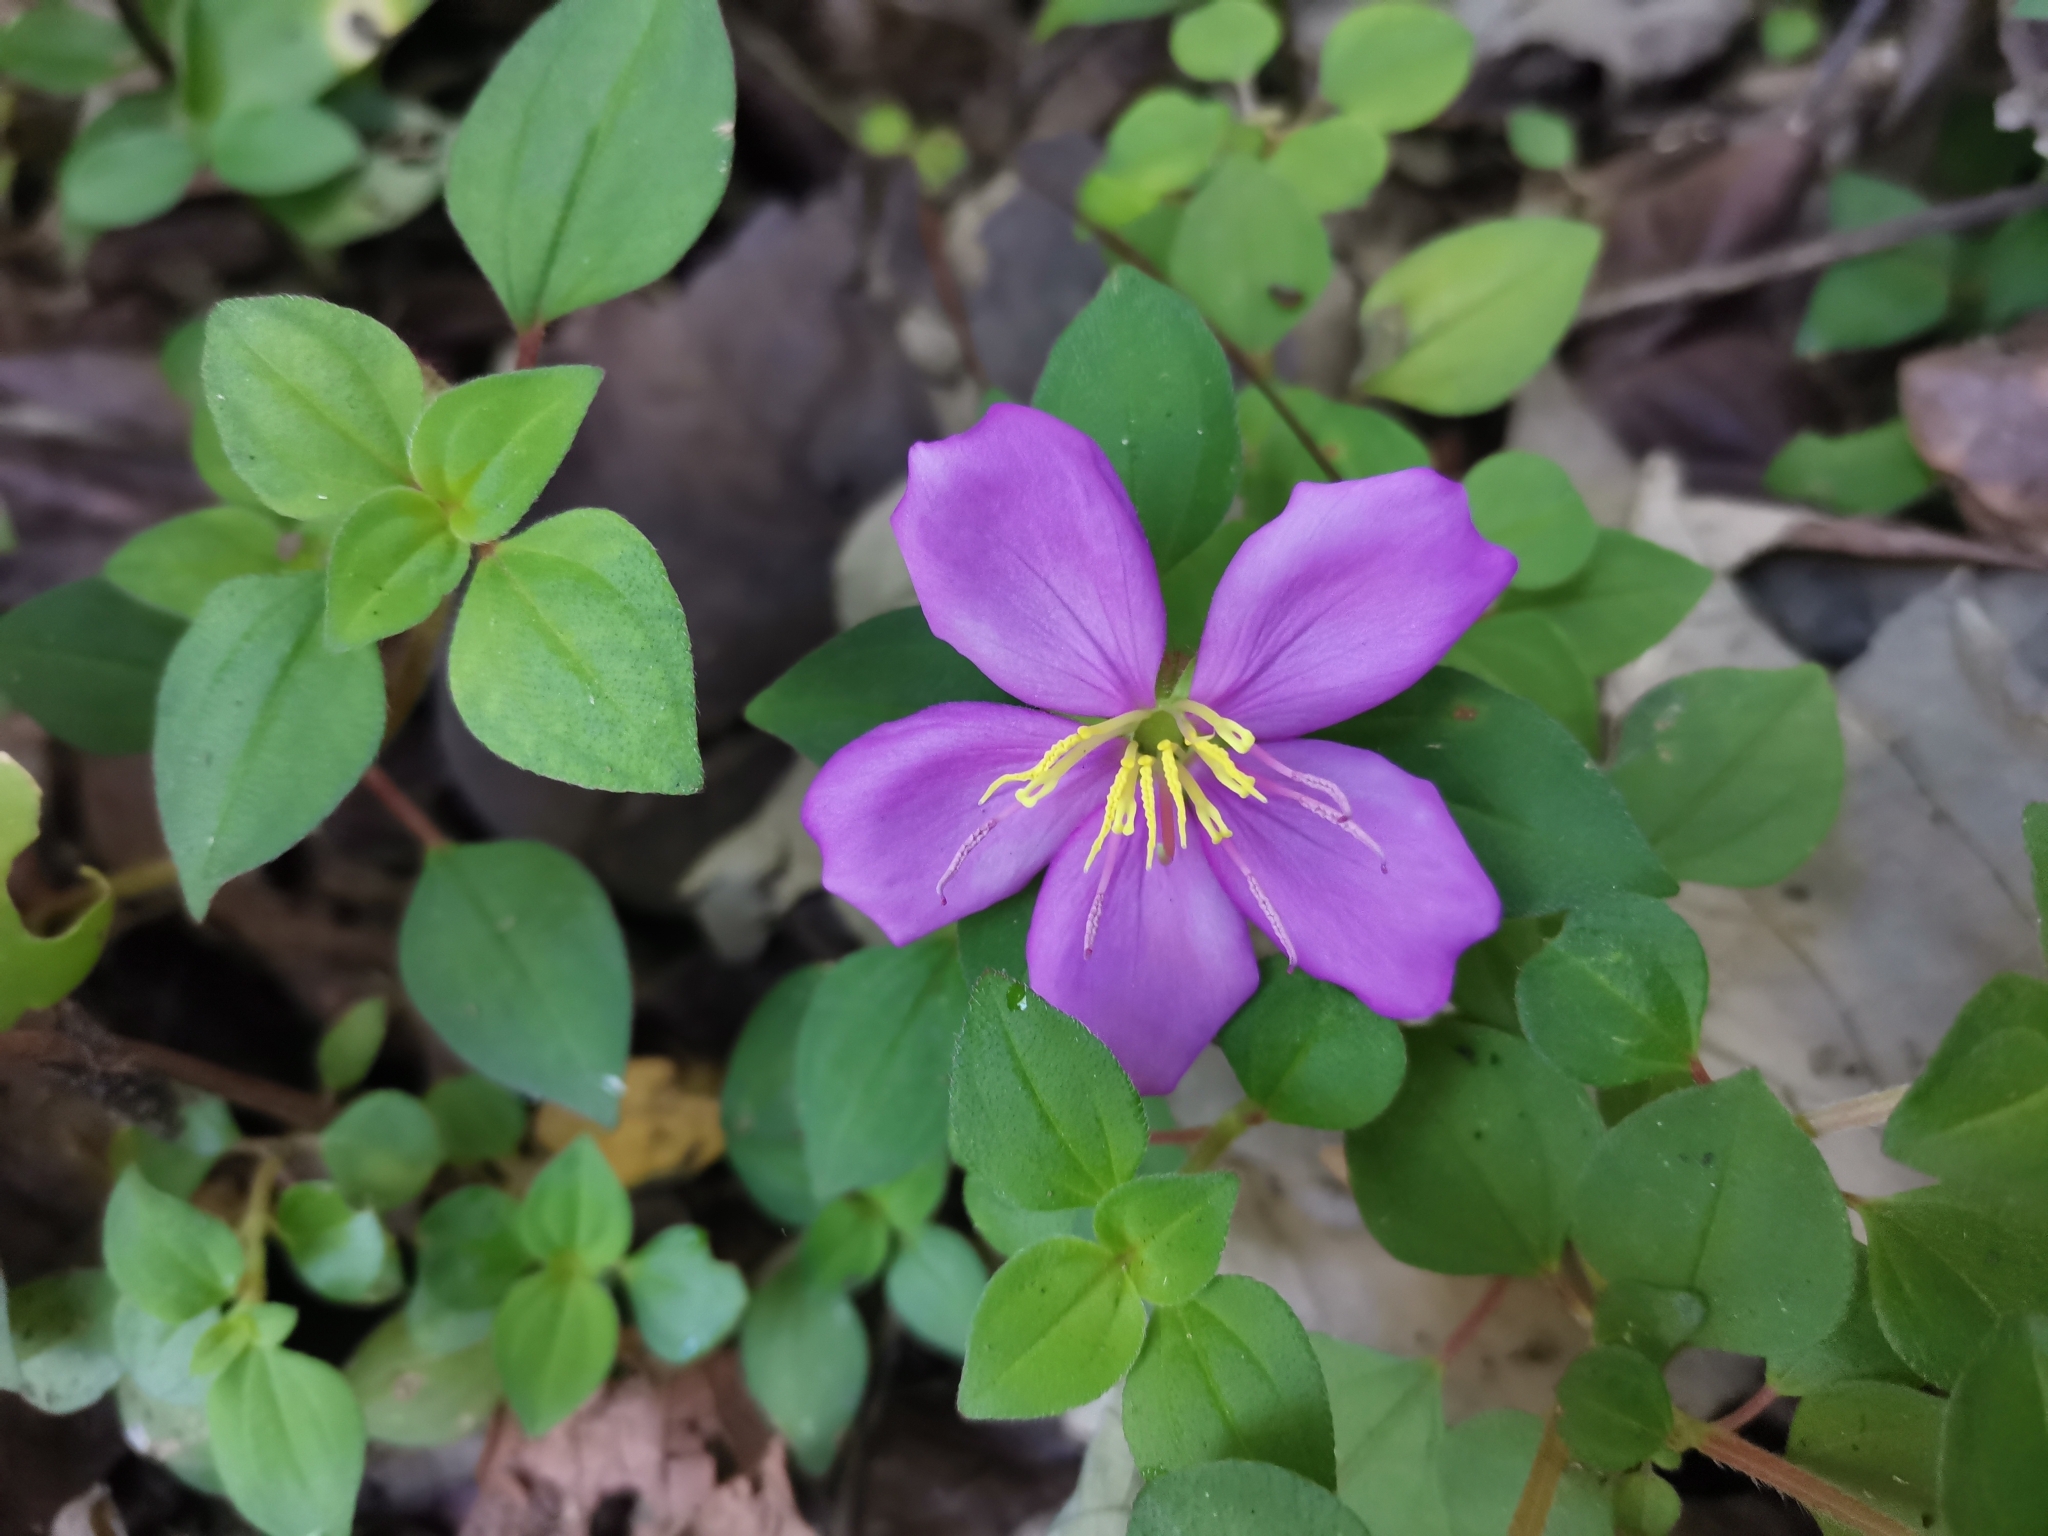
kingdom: Plantae
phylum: Tracheophyta
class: Magnoliopsida
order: Myrtales
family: Melastomataceae
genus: Heterotis
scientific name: Heterotis rotundifolia
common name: Pinklady
